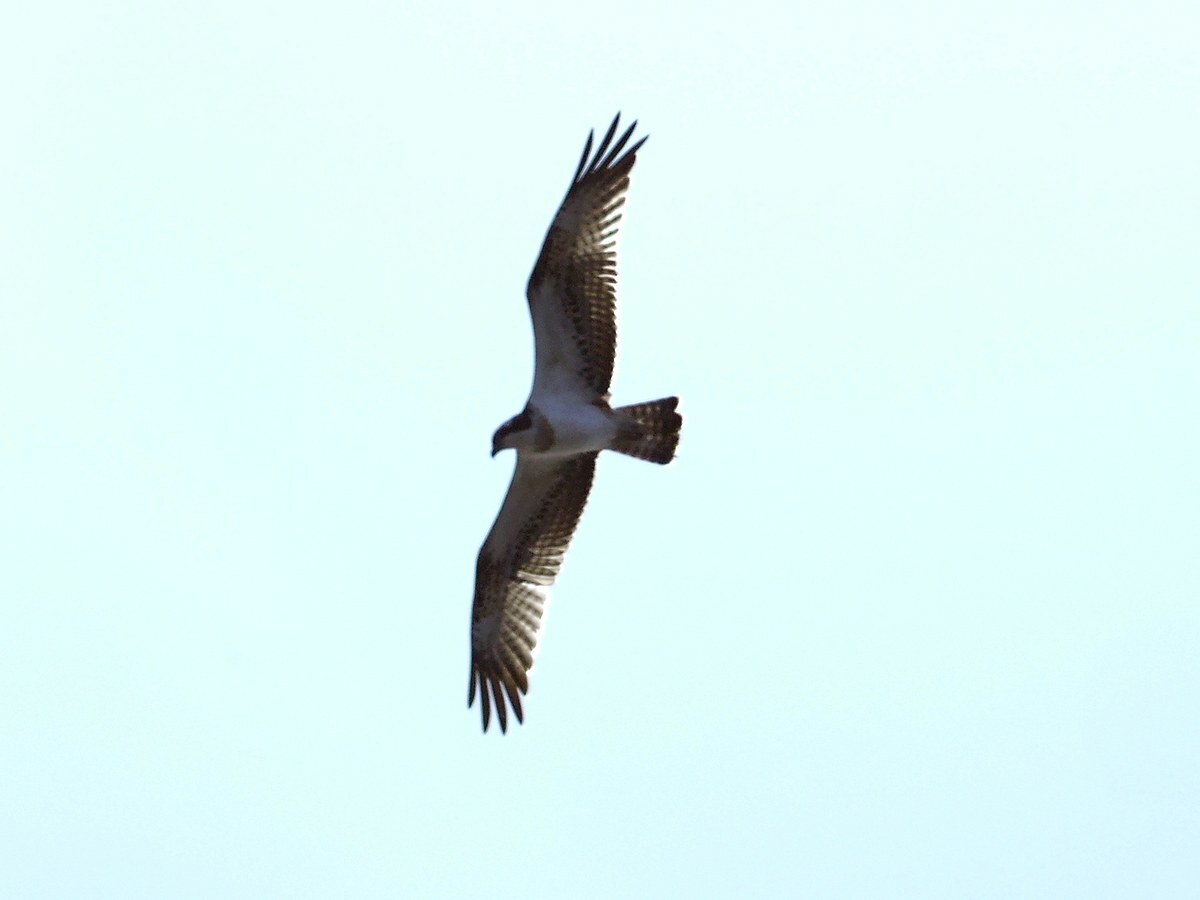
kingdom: Animalia
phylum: Chordata
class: Aves
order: Accipitriformes
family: Pandionidae
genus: Pandion
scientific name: Pandion haliaetus
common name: Osprey
